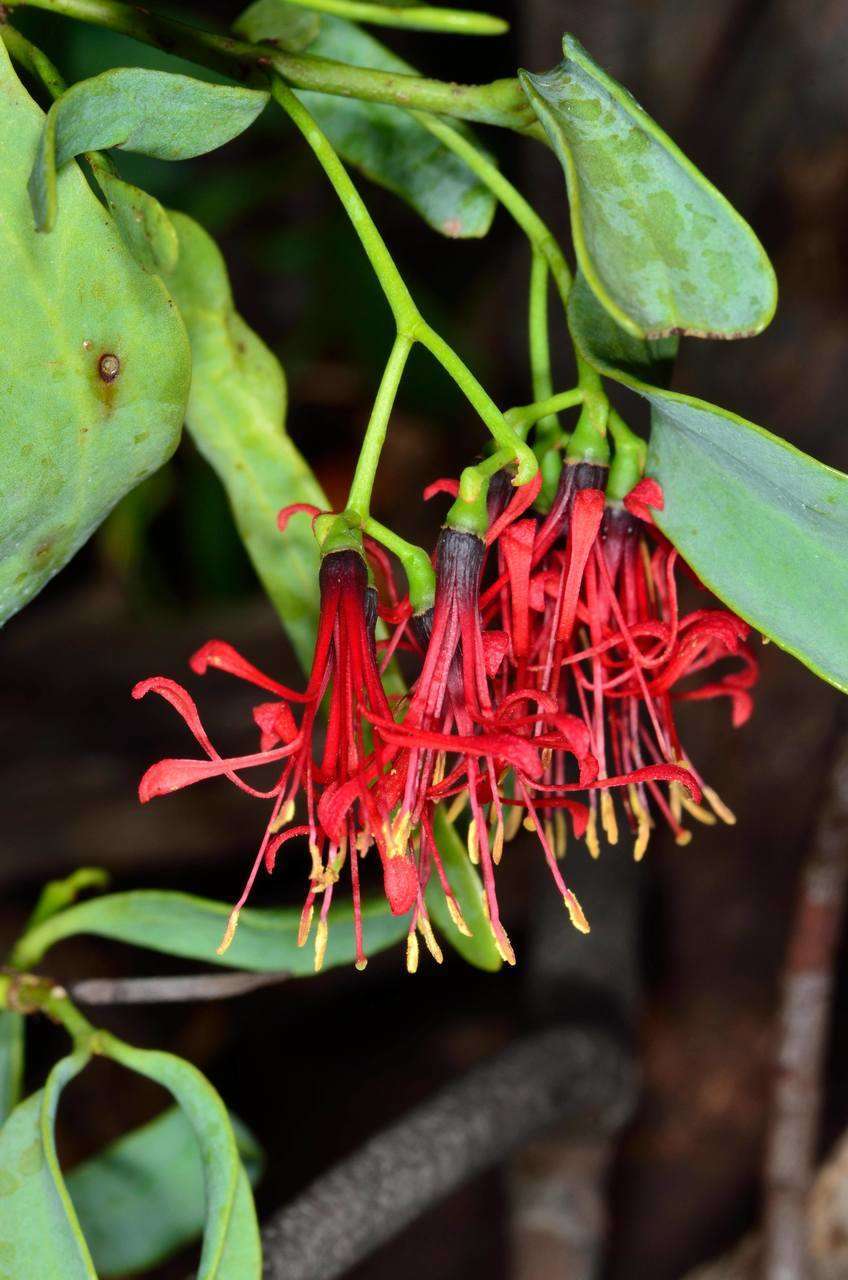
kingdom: Plantae
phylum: Tracheophyta
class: Magnoliopsida
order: Santalales
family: Loranthaceae
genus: Amyema
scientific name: Amyema miraculosa
